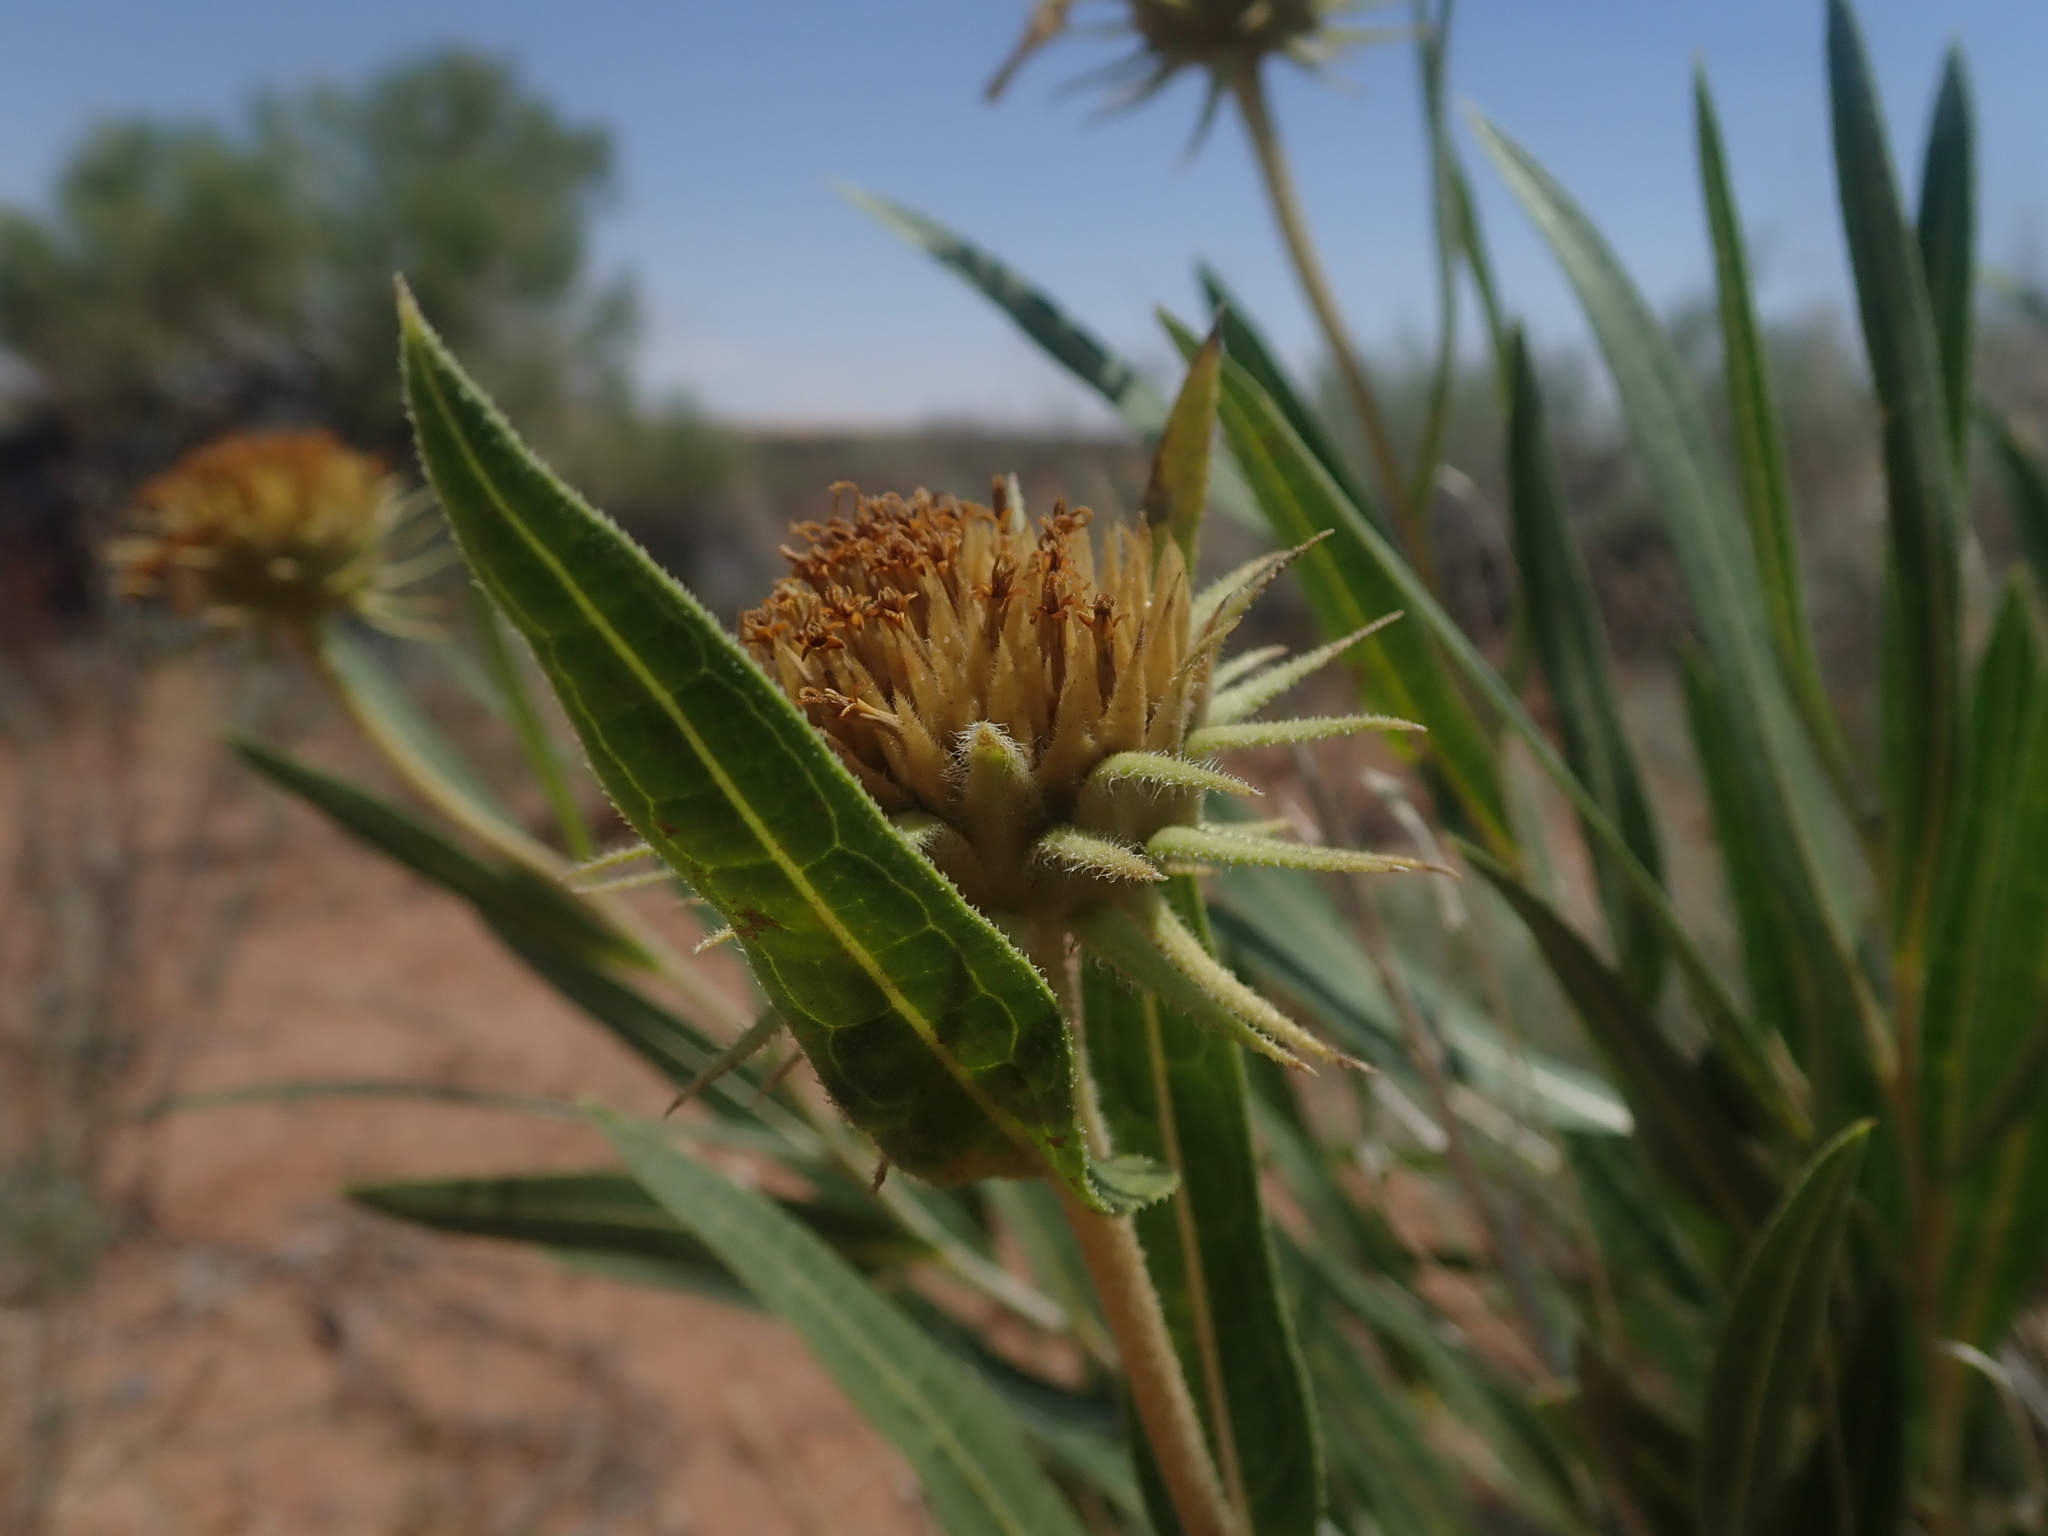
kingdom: Plantae
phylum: Tracheophyta
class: Magnoliopsida
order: Asterales
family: Asteraceae
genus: Scabrethia
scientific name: Scabrethia scabra
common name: Rough mules's-ears
